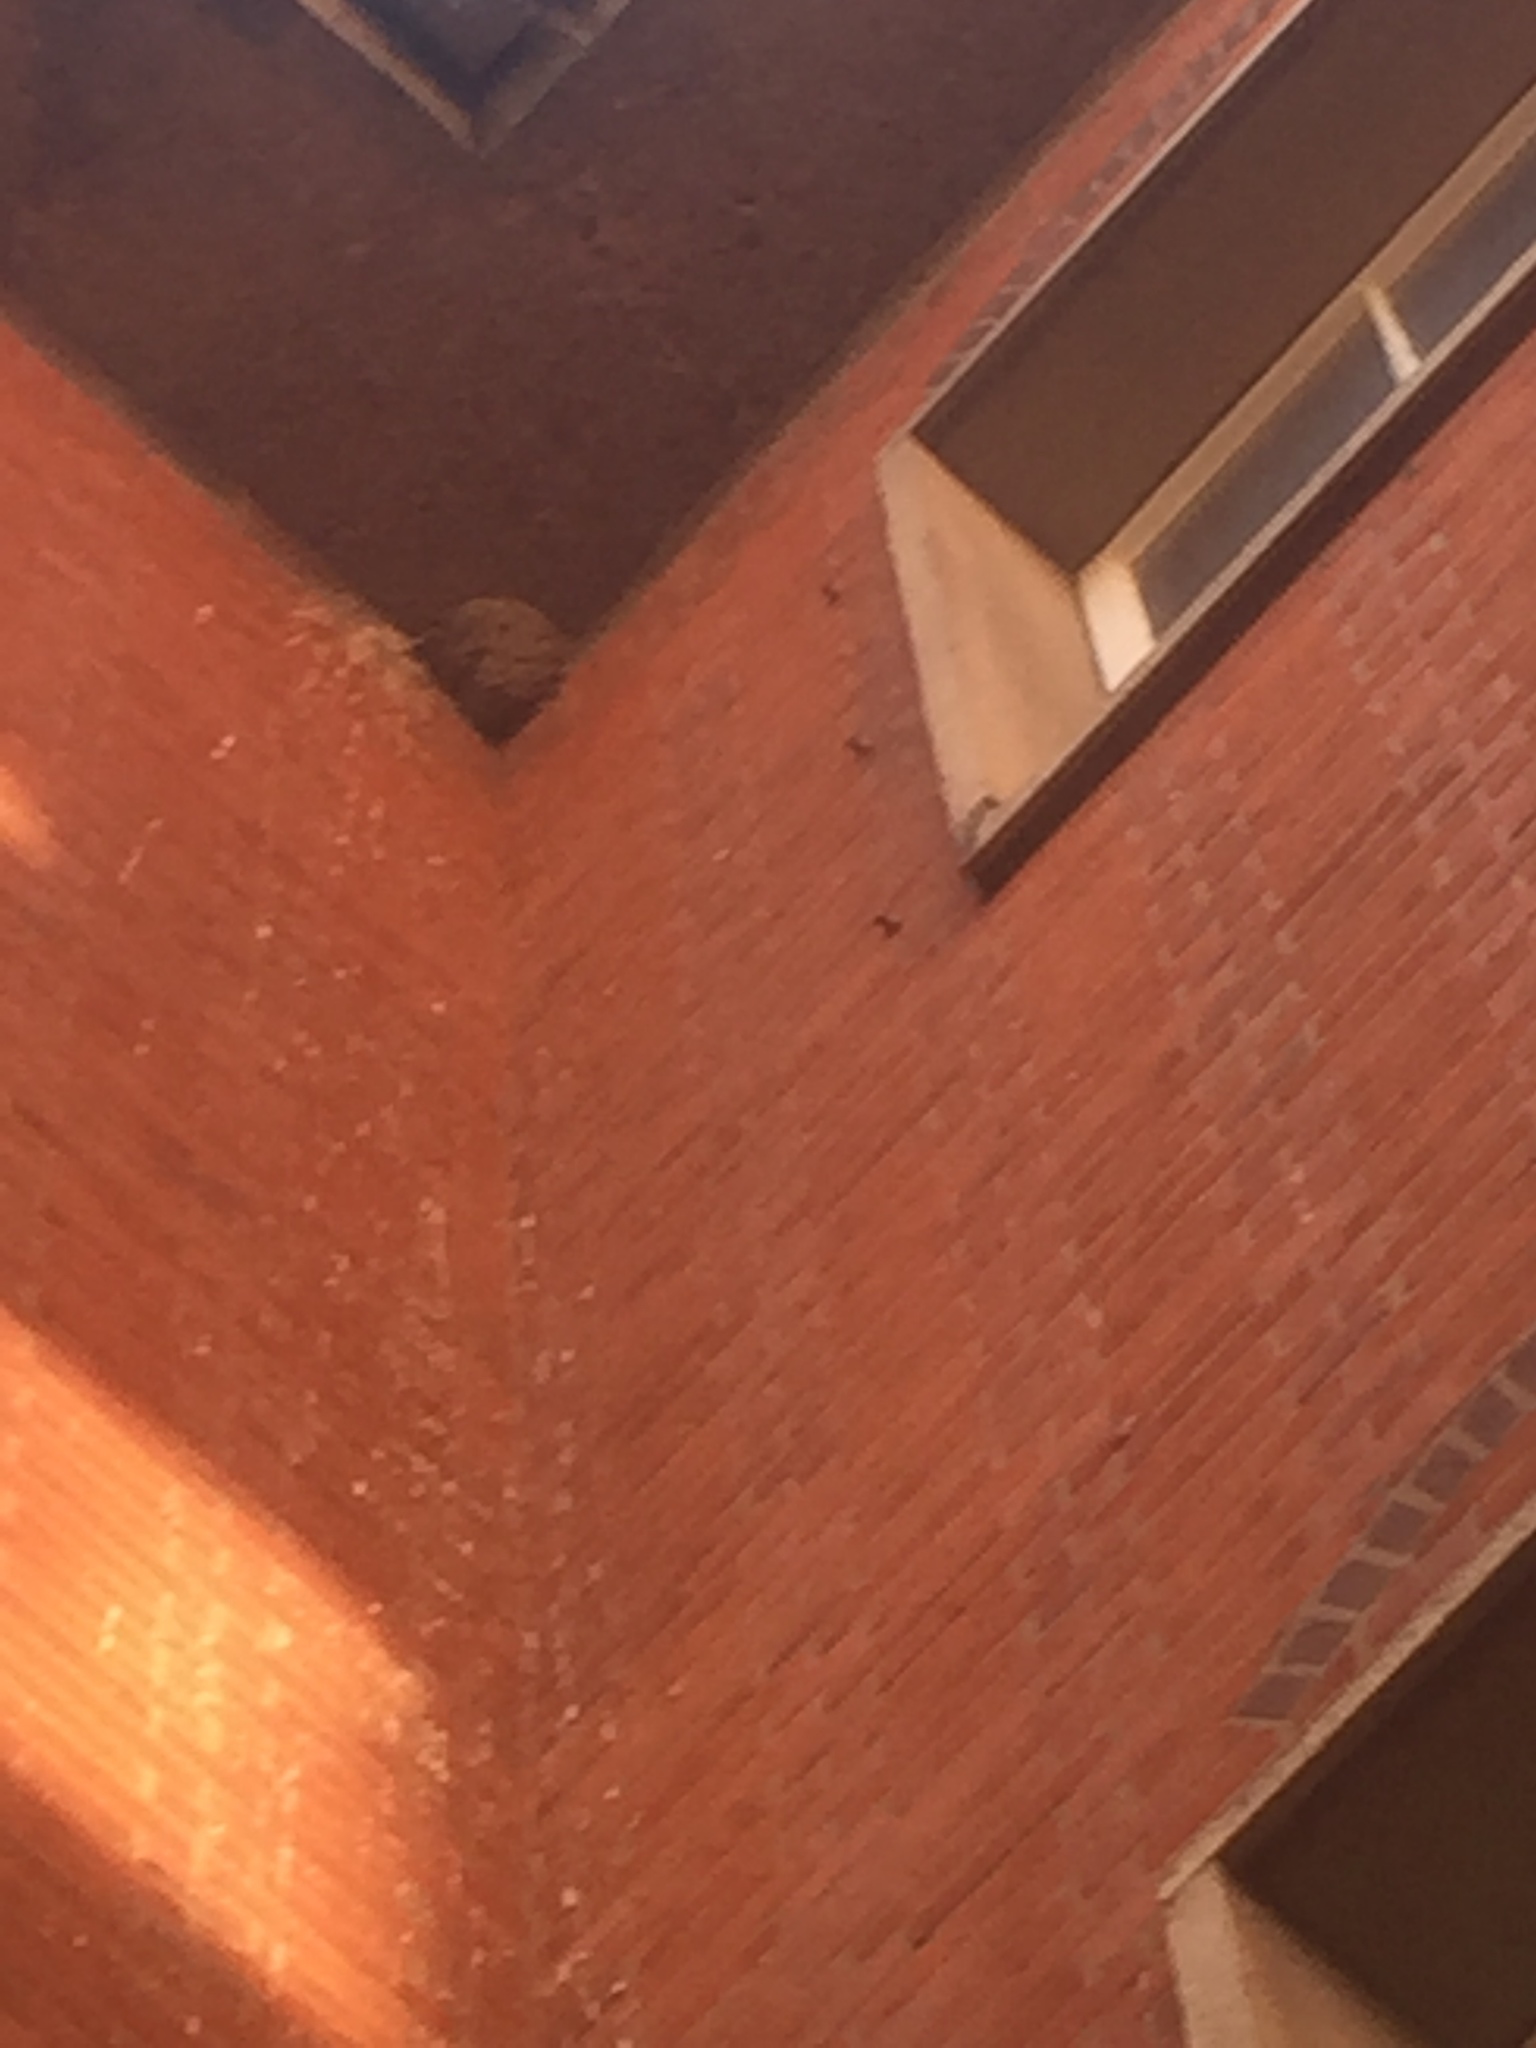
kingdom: Animalia
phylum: Chordata
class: Aves
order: Passeriformes
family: Hirundinidae
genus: Delichon
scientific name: Delichon urbicum
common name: Common house martin
